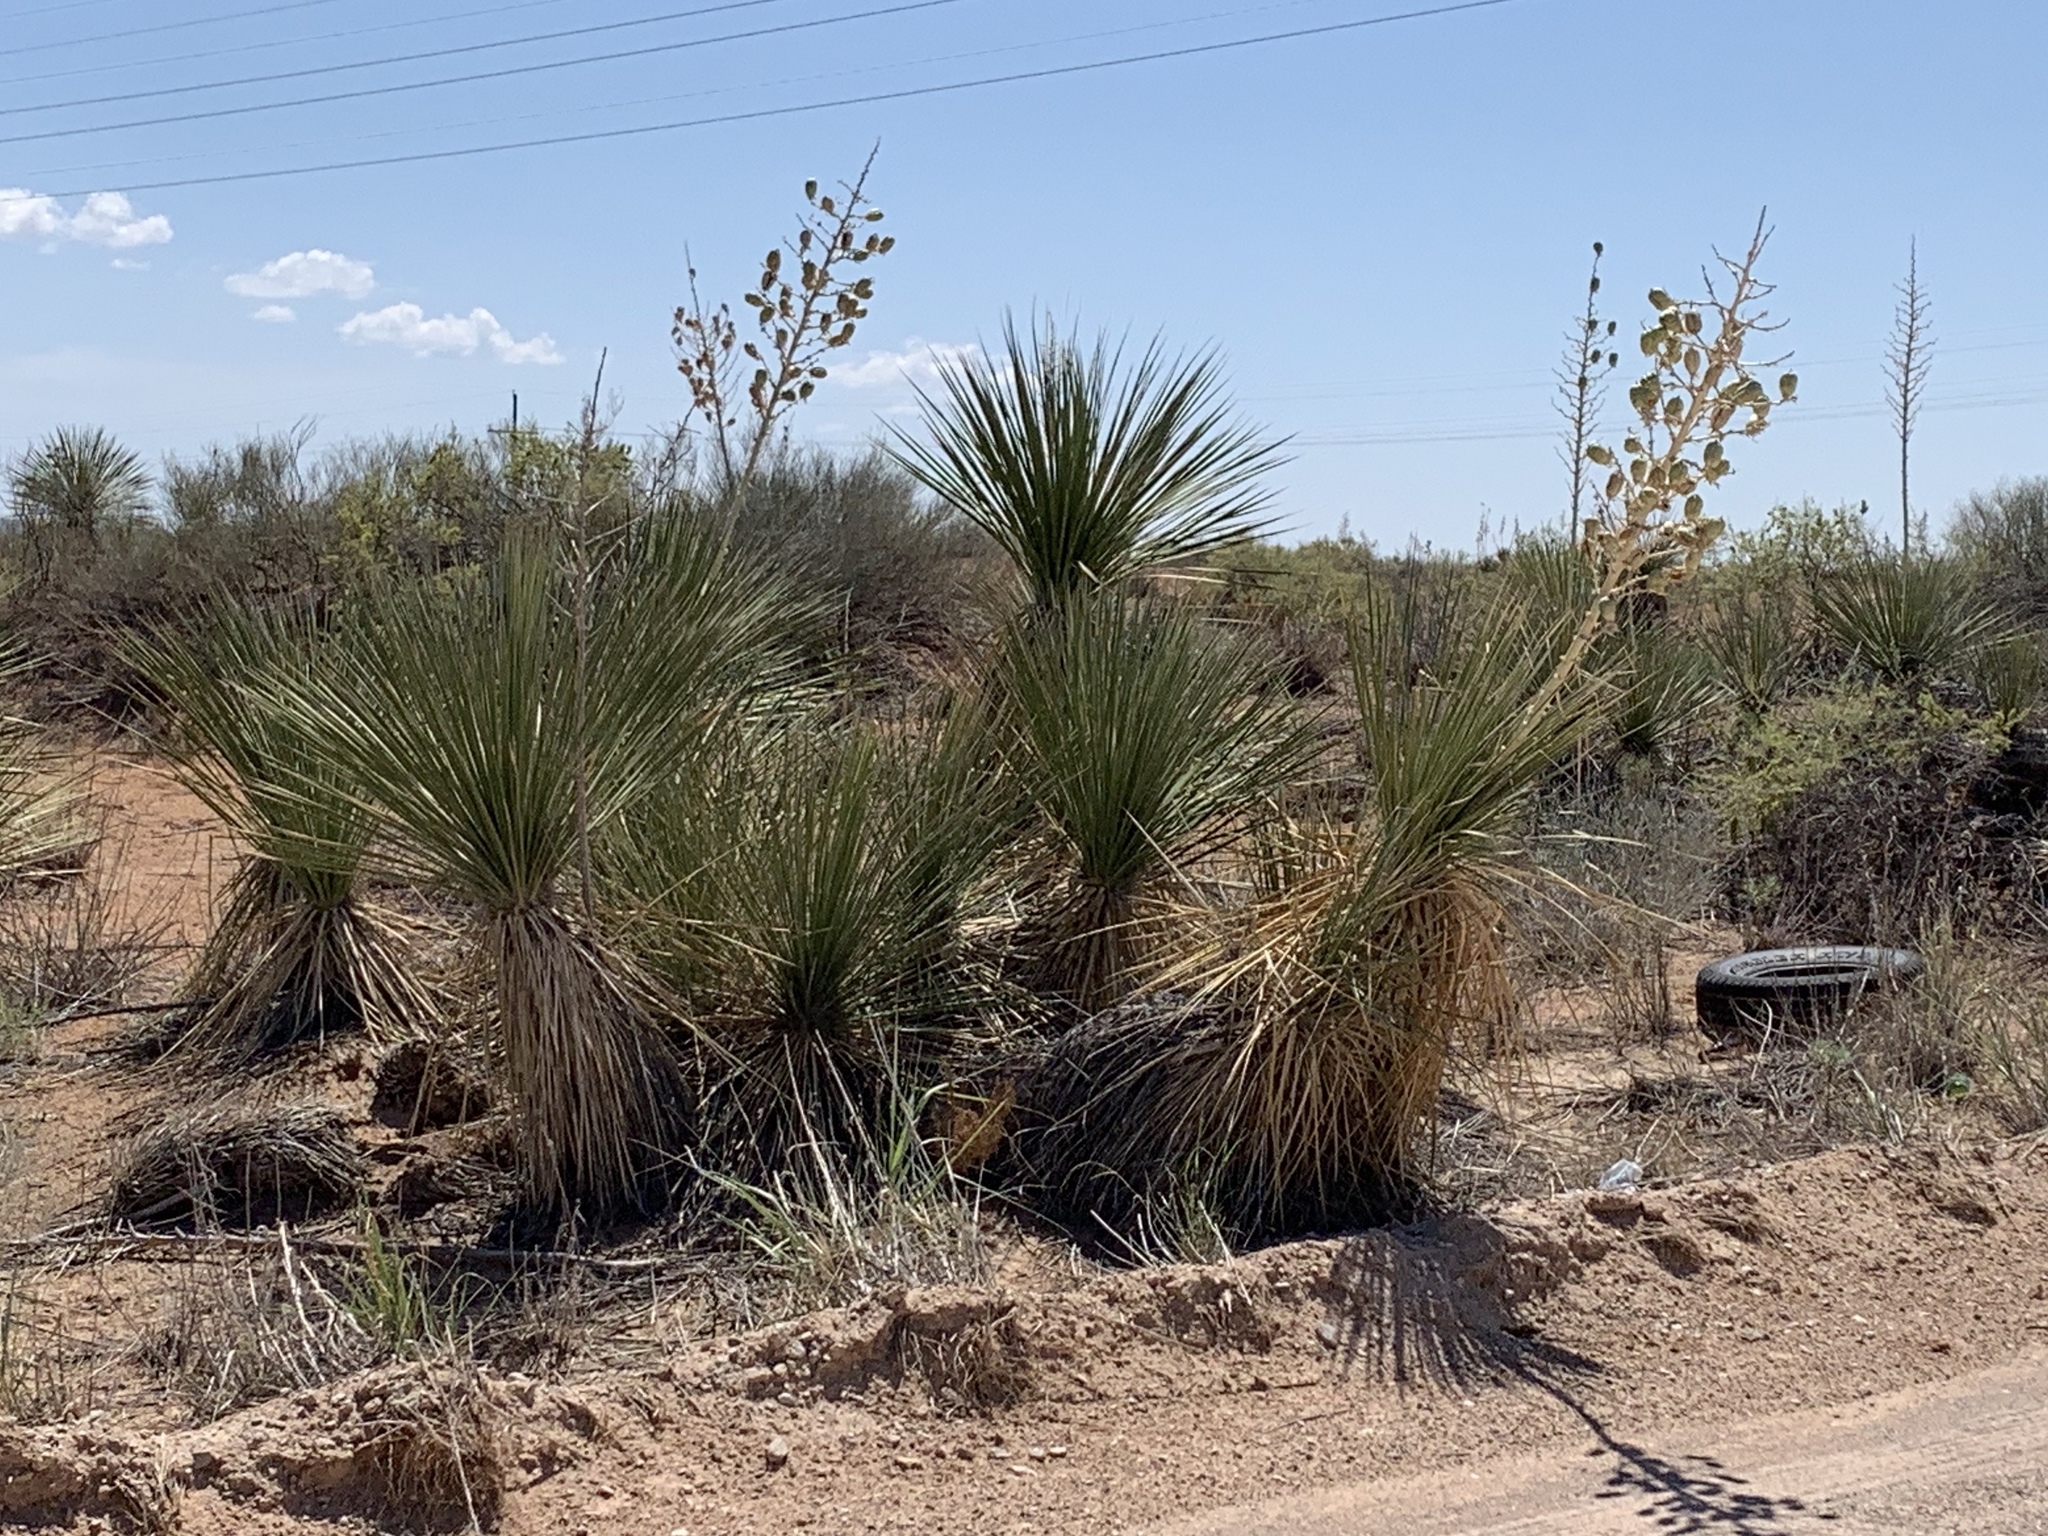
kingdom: Plantae
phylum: Tracheophyta
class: Liliopsida
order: Asparagales
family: Asparagaceae
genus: Yucca
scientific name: Yucca elata
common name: Palmella
